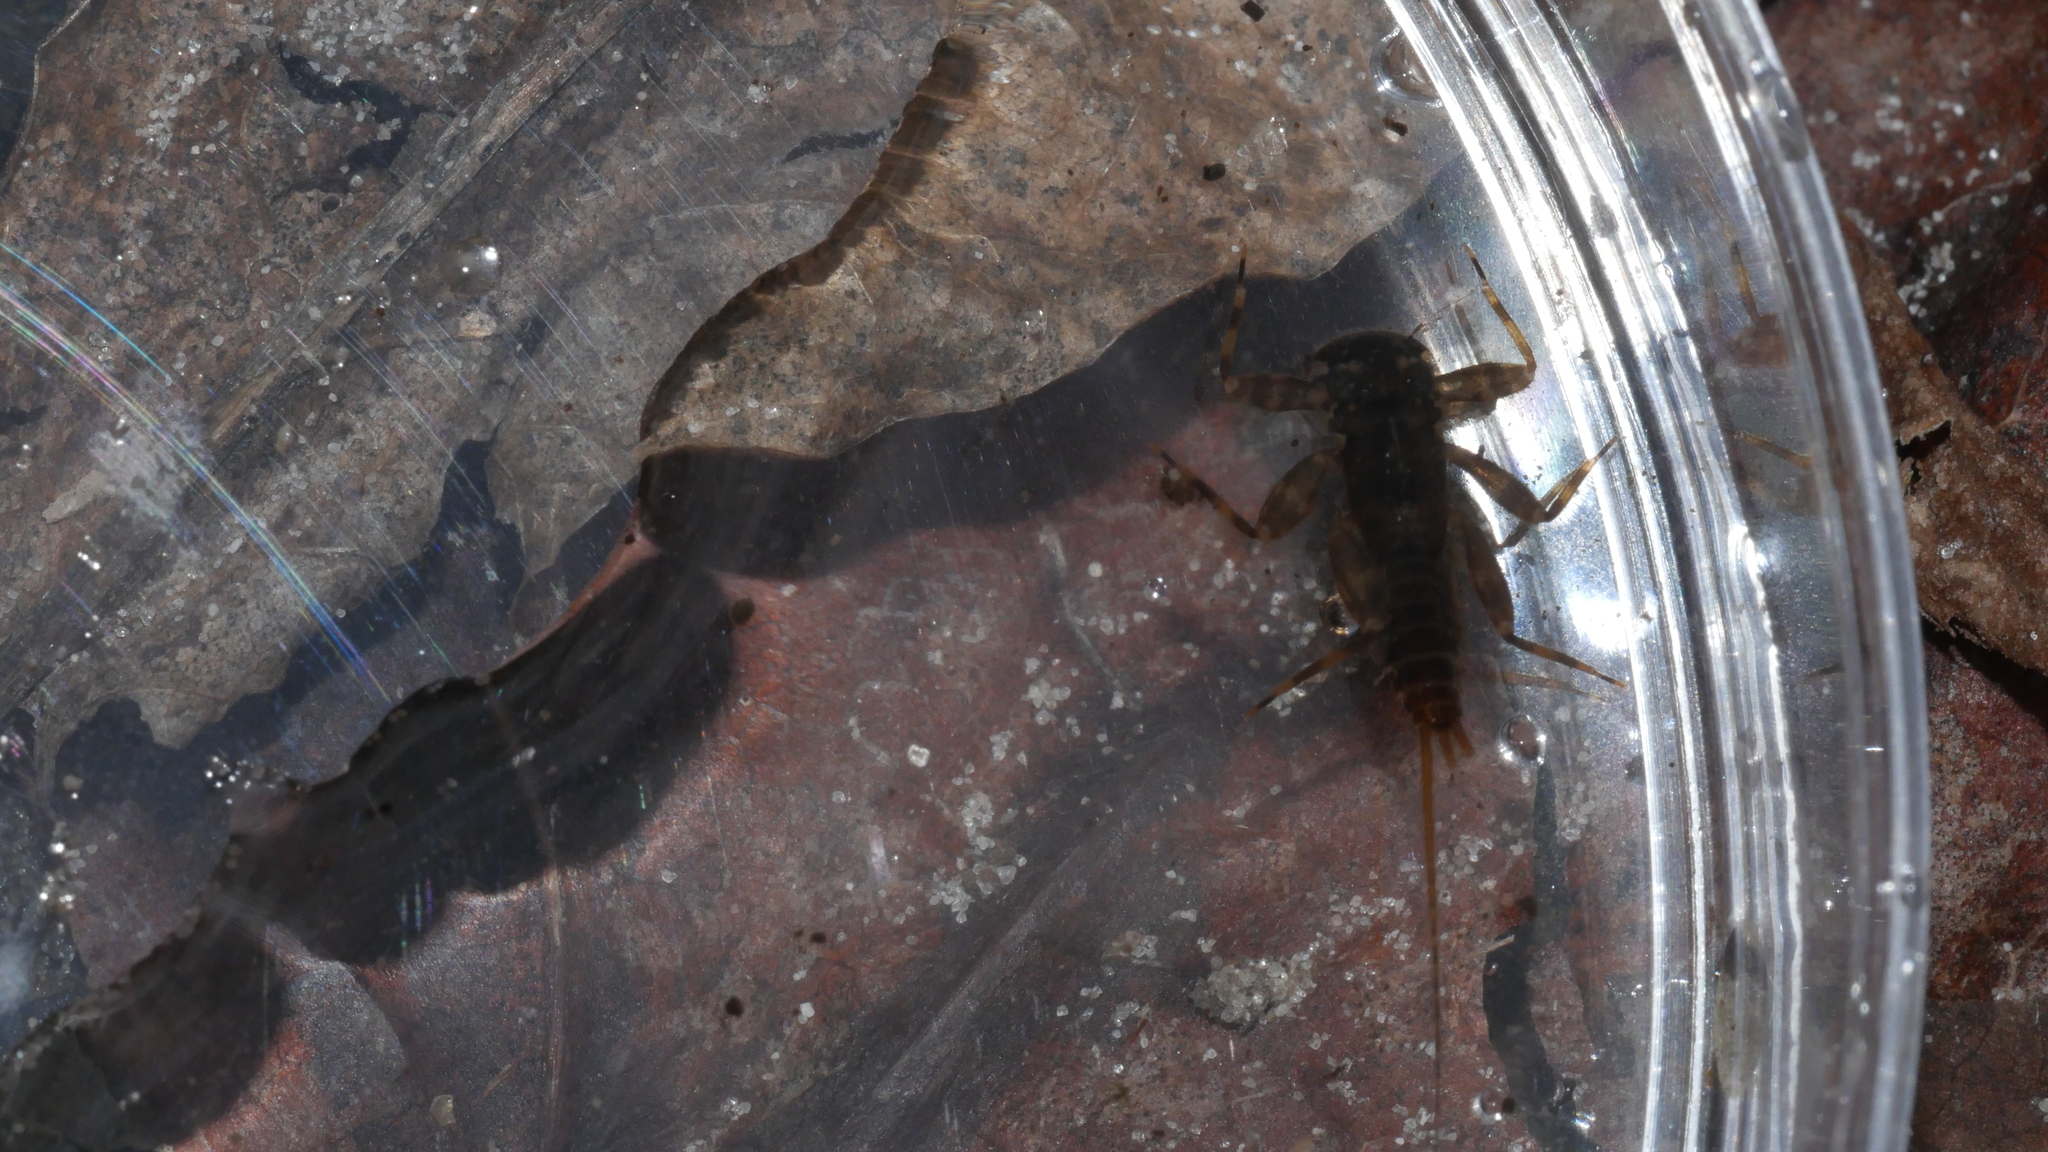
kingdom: Animalia
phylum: Arthropoda
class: Insecta
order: Ephemeroptera
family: Heptageniidae
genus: Maccaffertium
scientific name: Maccaffertium modestum
